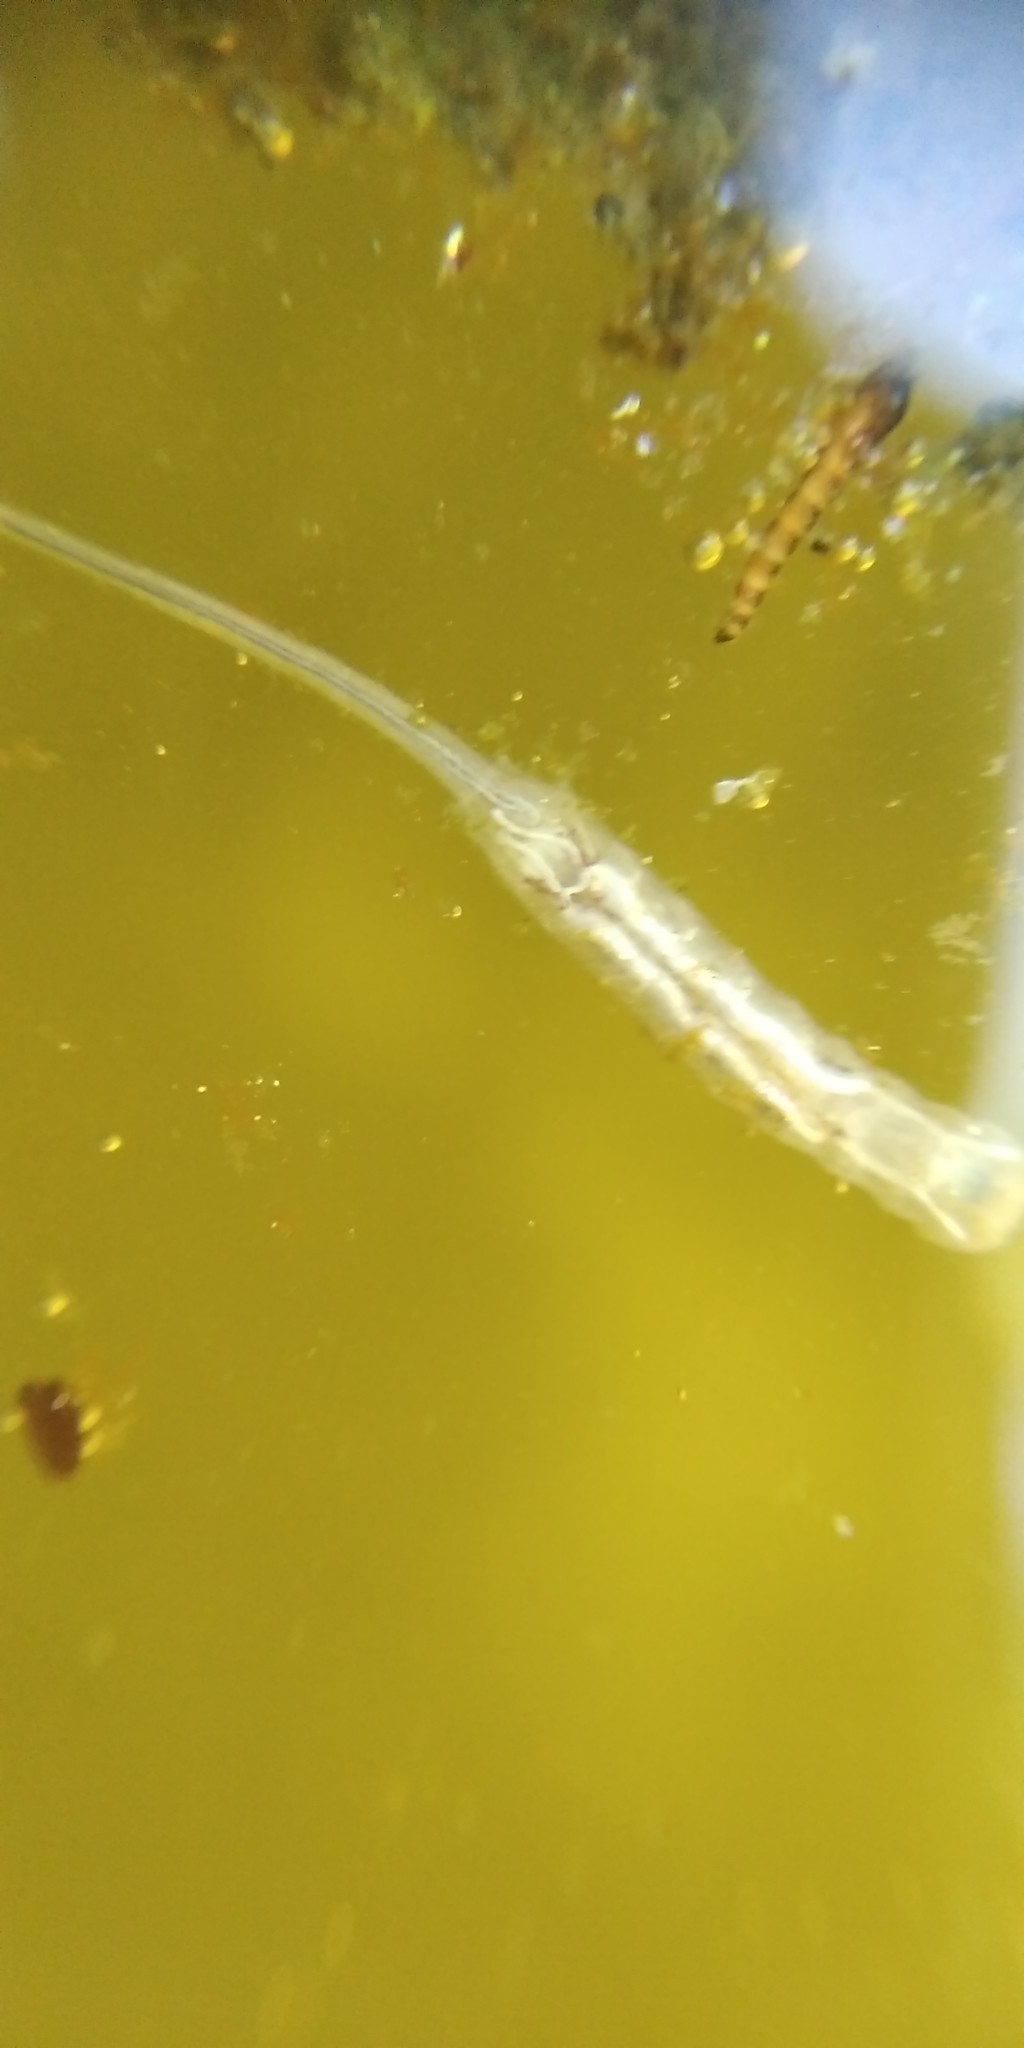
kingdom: Animalia
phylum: Arthropoda
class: Insecta
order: Diptera
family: Syrphidae
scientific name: Syrphidae
